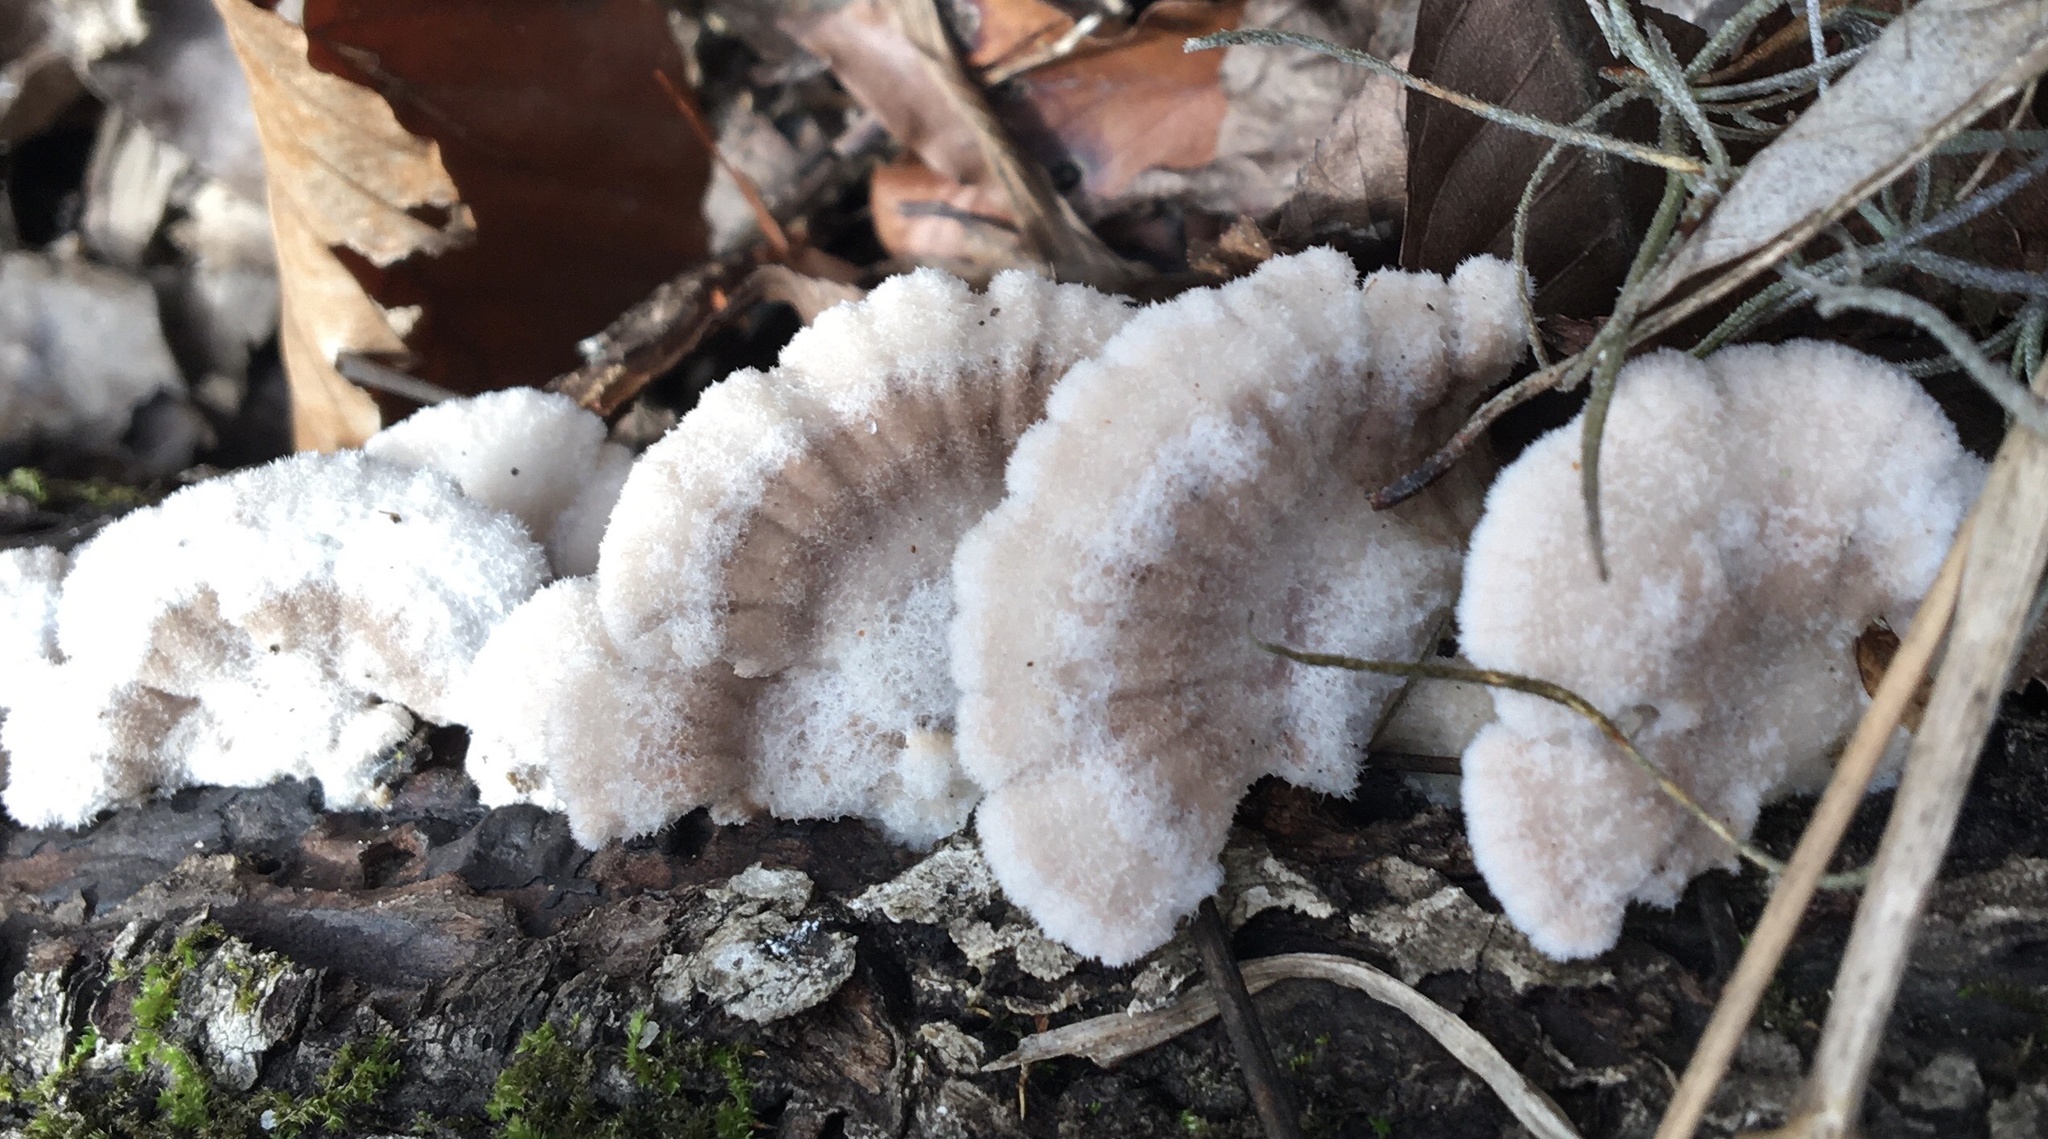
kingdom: Fungi
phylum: Basidiomycota
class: Agaricomycetes
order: Agaricales
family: Schizophyllaceae
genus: Schizophyllum
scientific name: Schizophyllum commune
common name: Common porecrust
